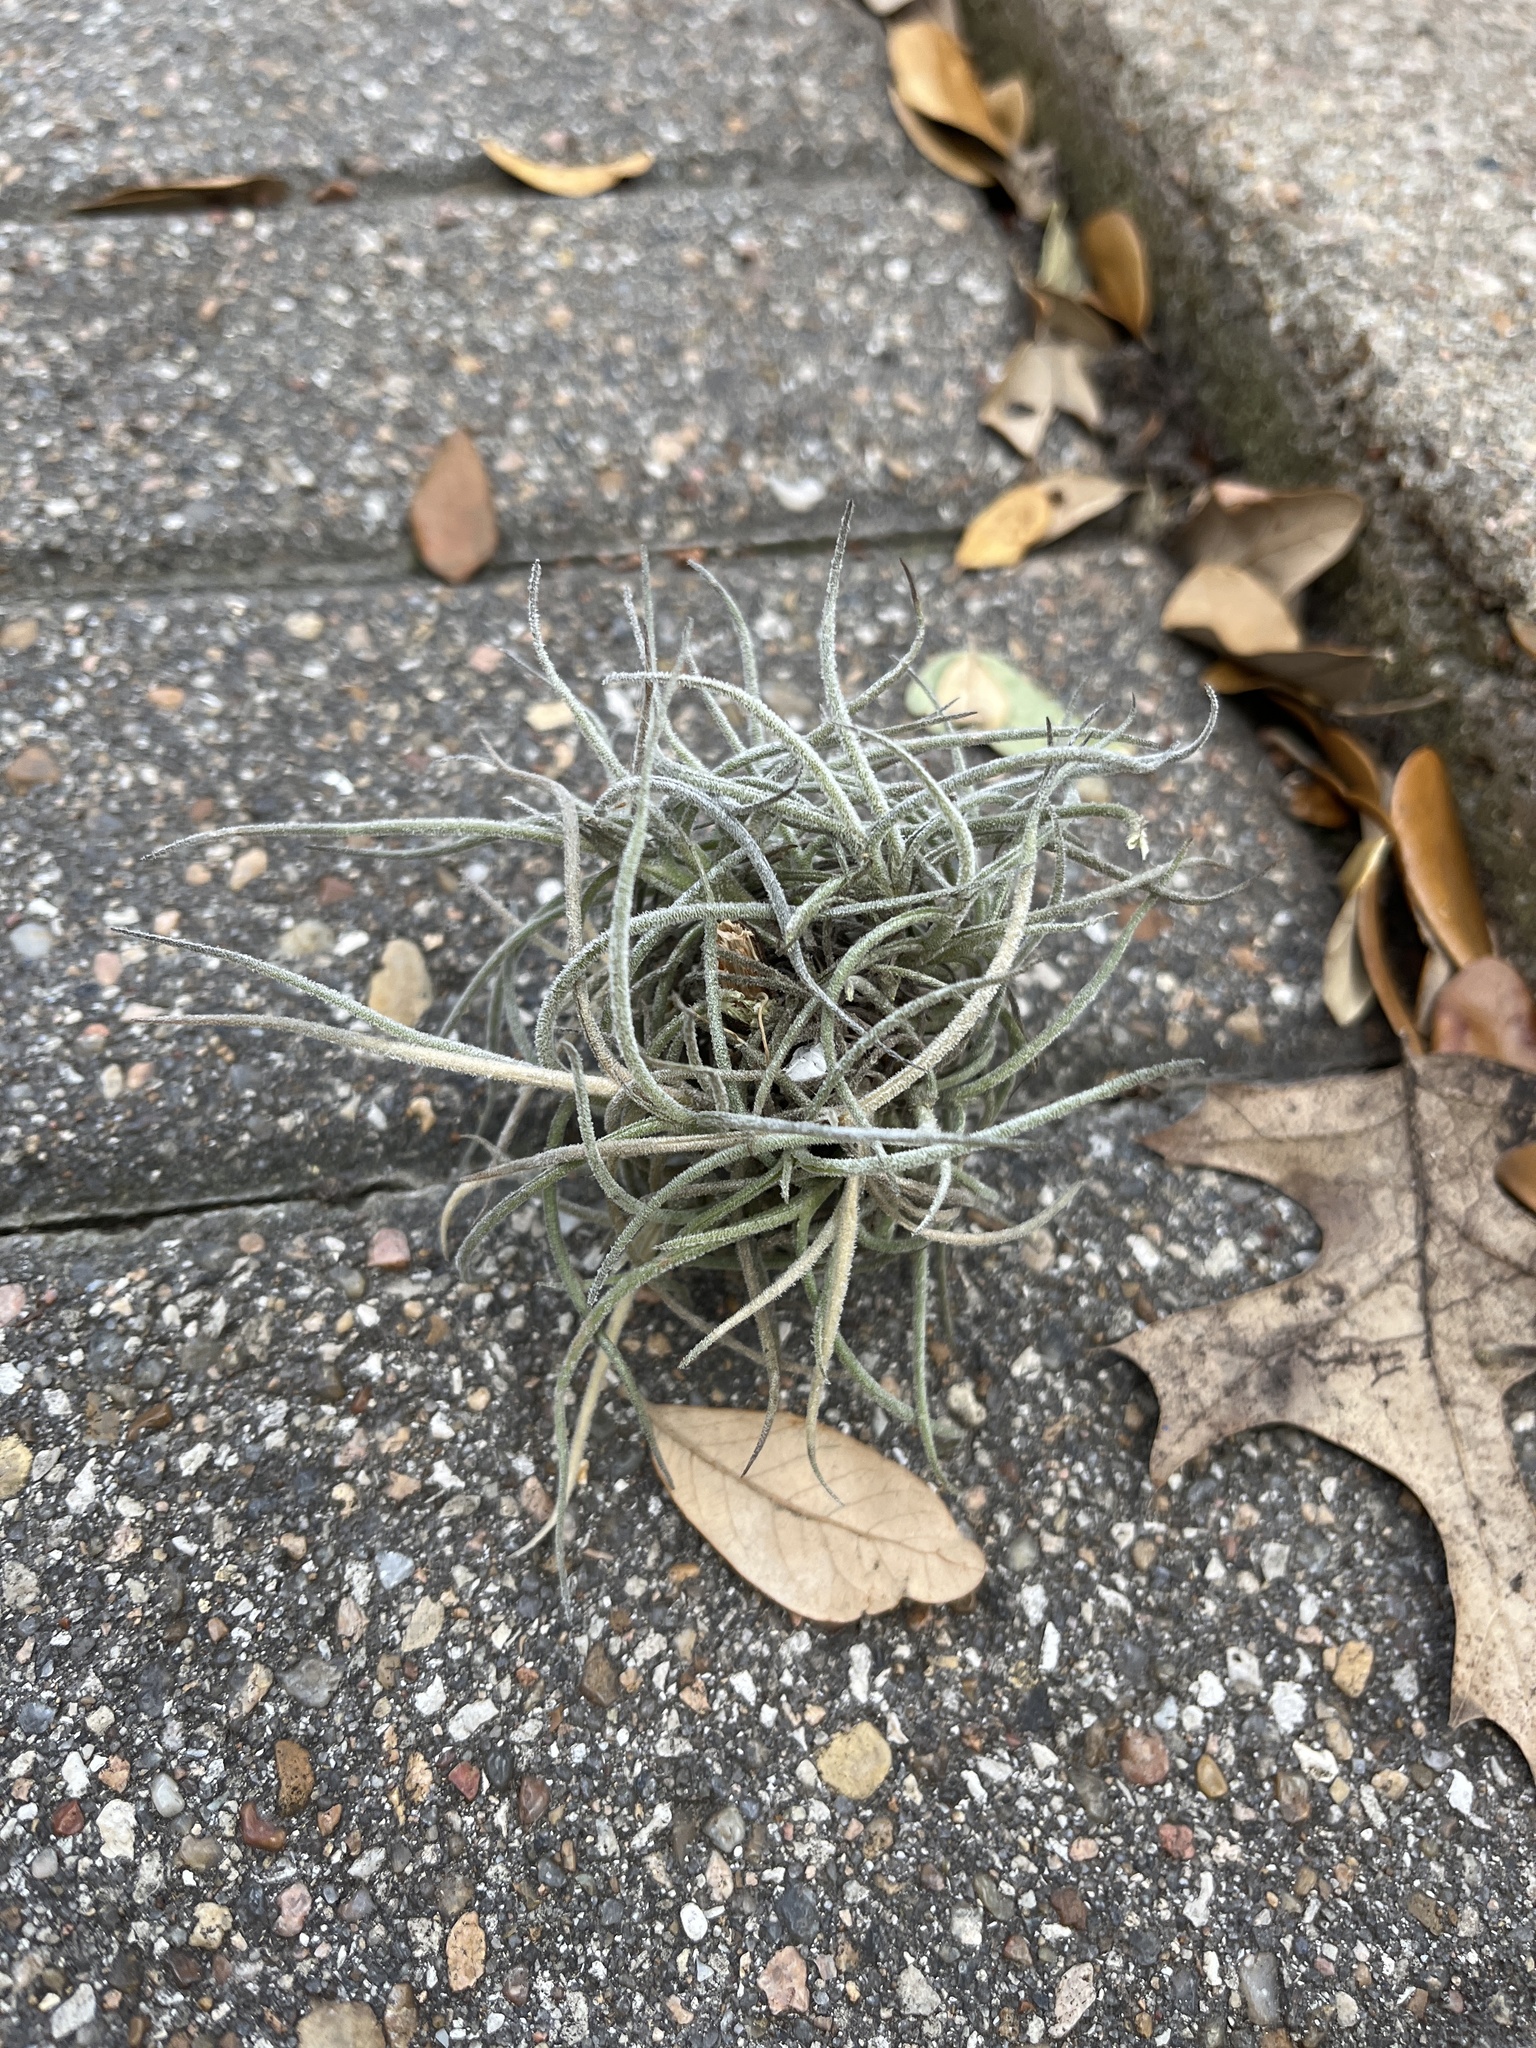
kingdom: Plantae
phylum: Tracheophyta
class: Liliopsida
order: Poales
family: Bromeliaceae
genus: Tillandsia
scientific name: Tillandsia recurvata
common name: Small ballmoss
